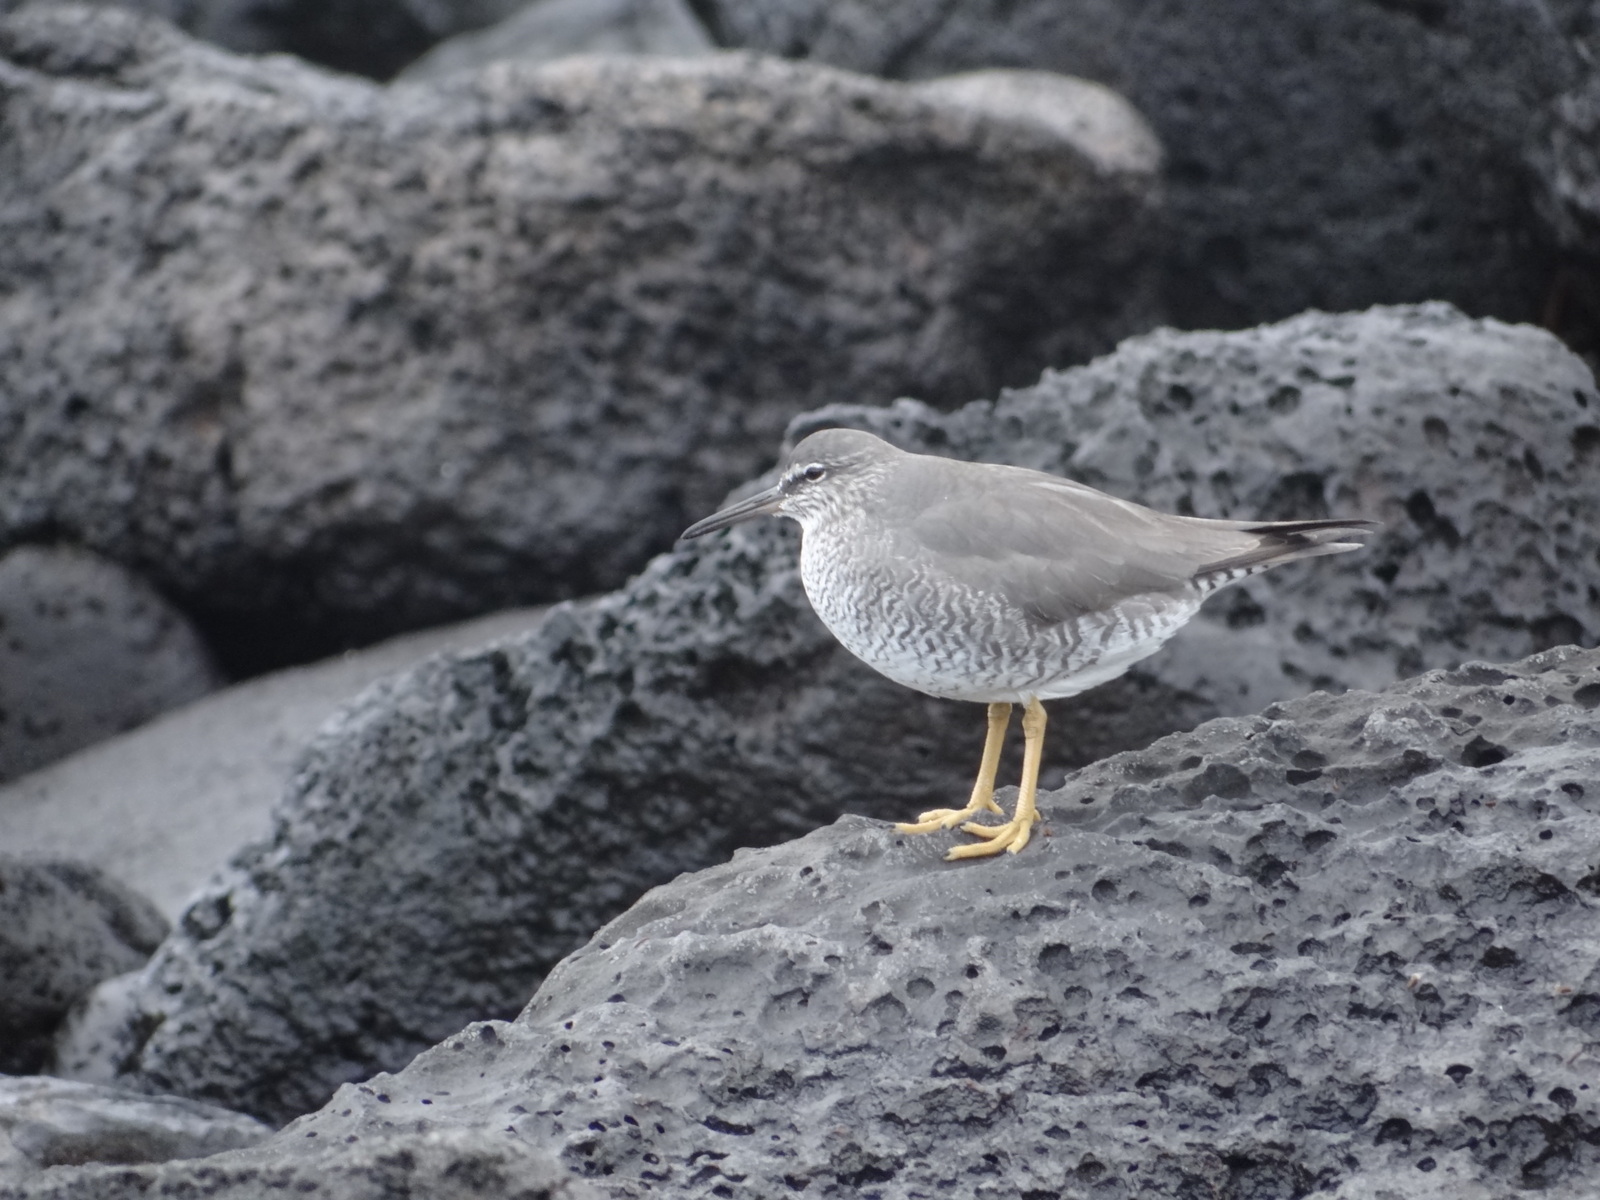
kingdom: Animalia
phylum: Chordata
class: Aves
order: Charadriiformes
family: Scolopacidae
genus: Tringa
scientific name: Tringa incana
